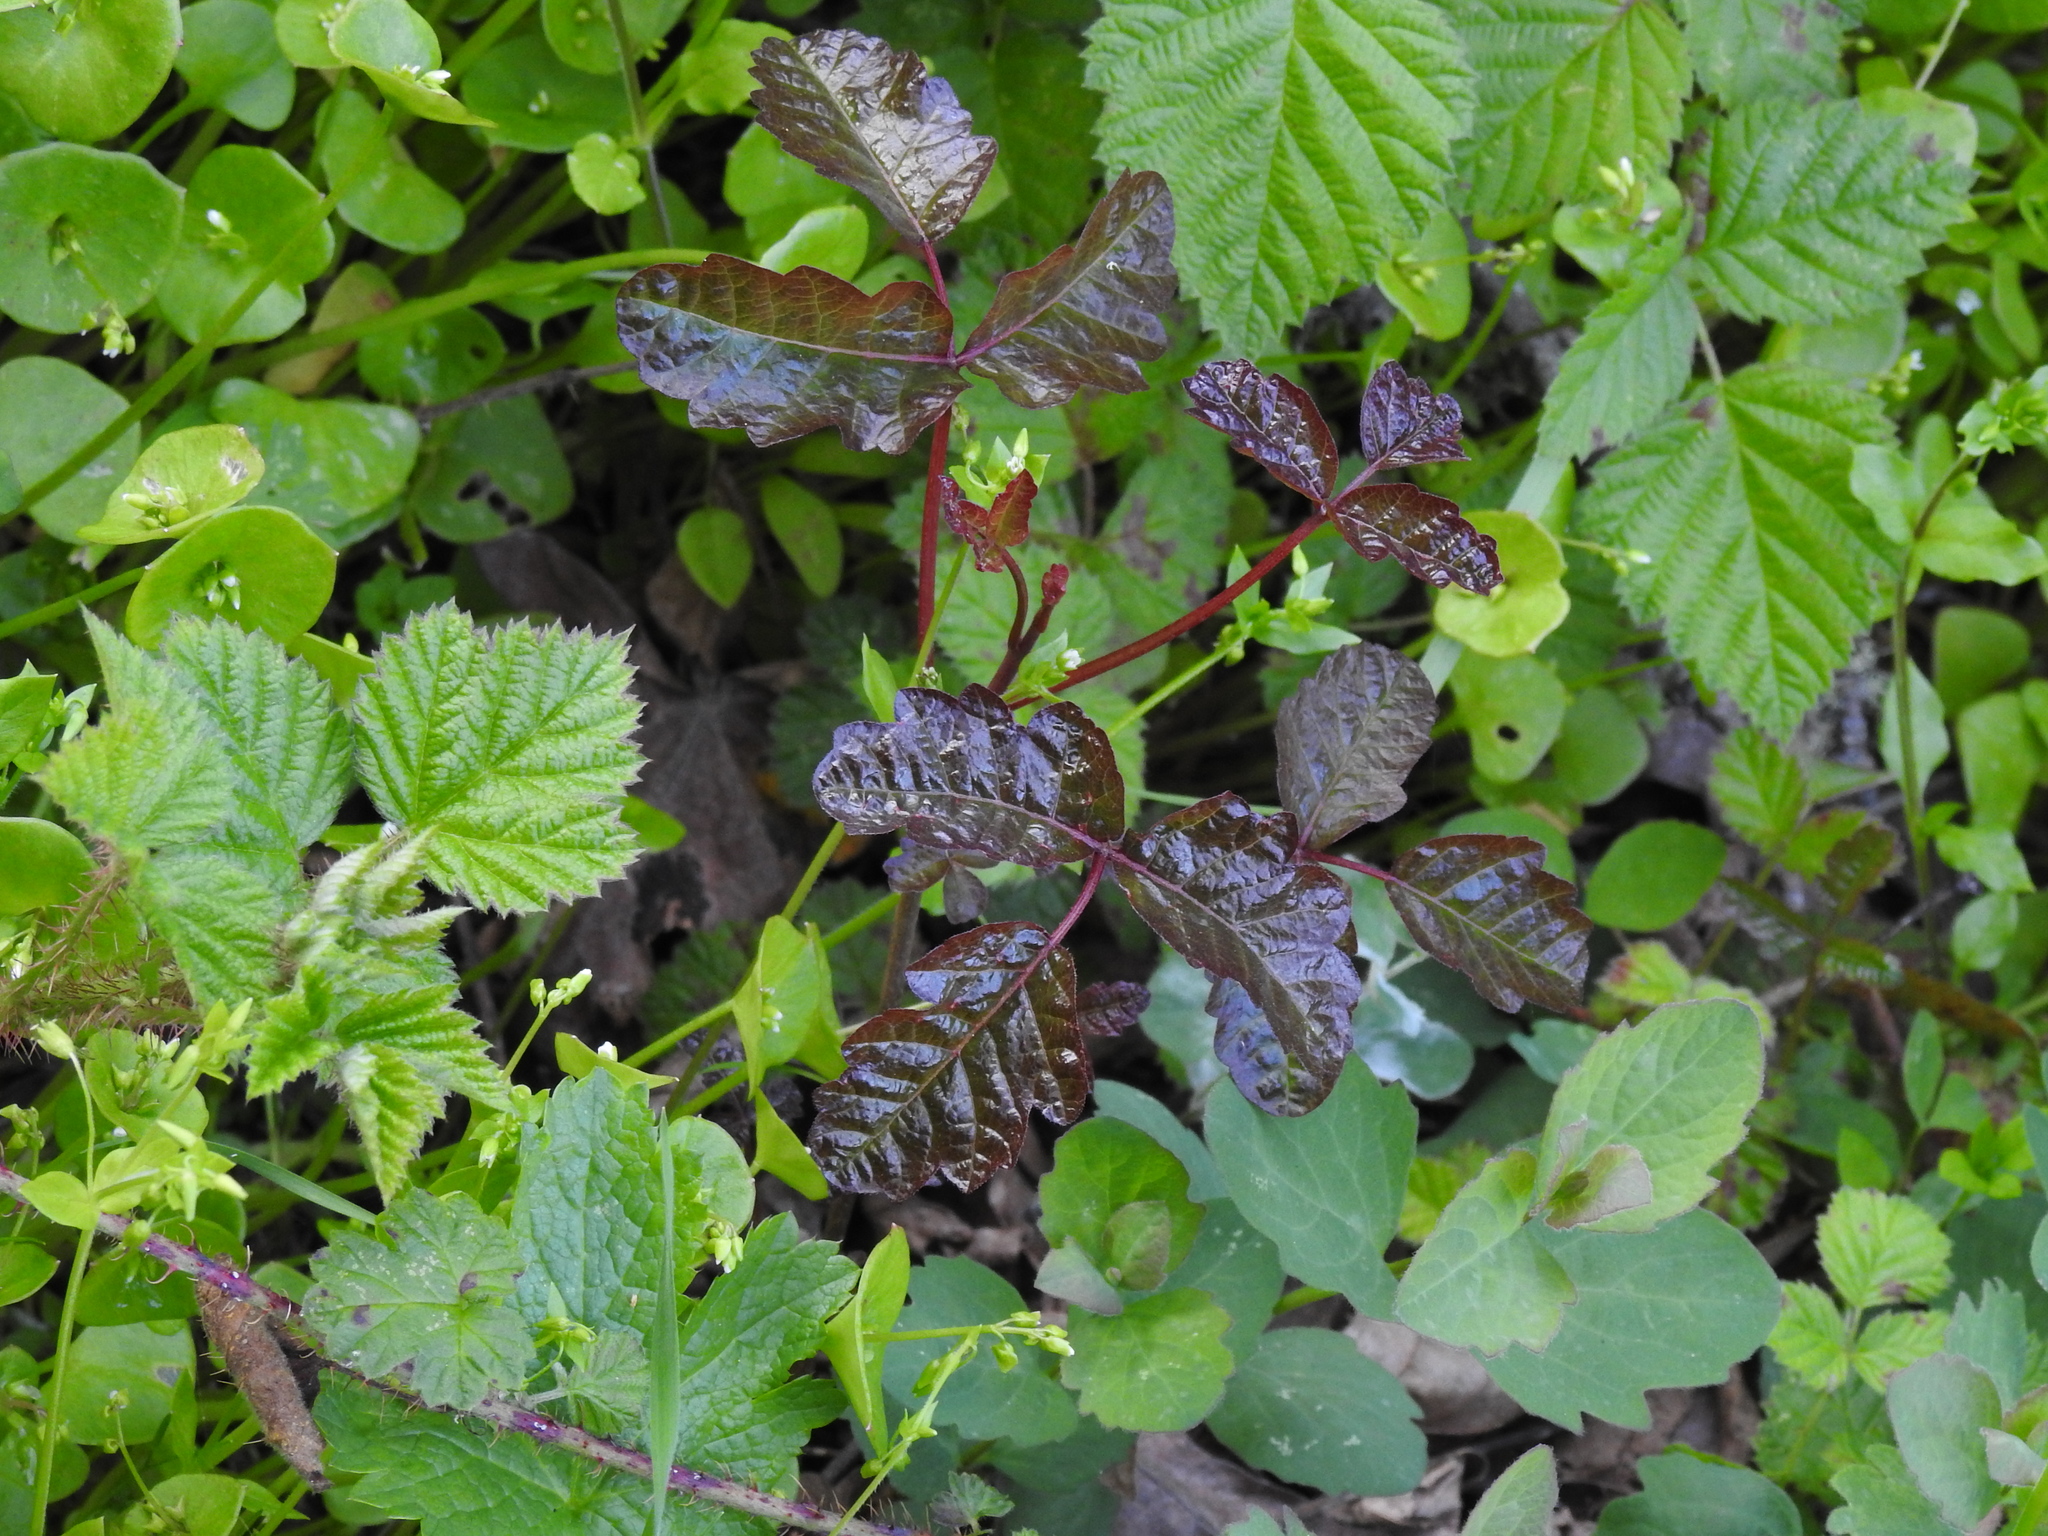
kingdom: Plantae
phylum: Tracheophyta
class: Magnoliopsida
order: Sapindales
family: Anacardiaceae
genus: Toxicodendron
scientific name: Toxicodendron diversilobum
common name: Pacific poison-oak
